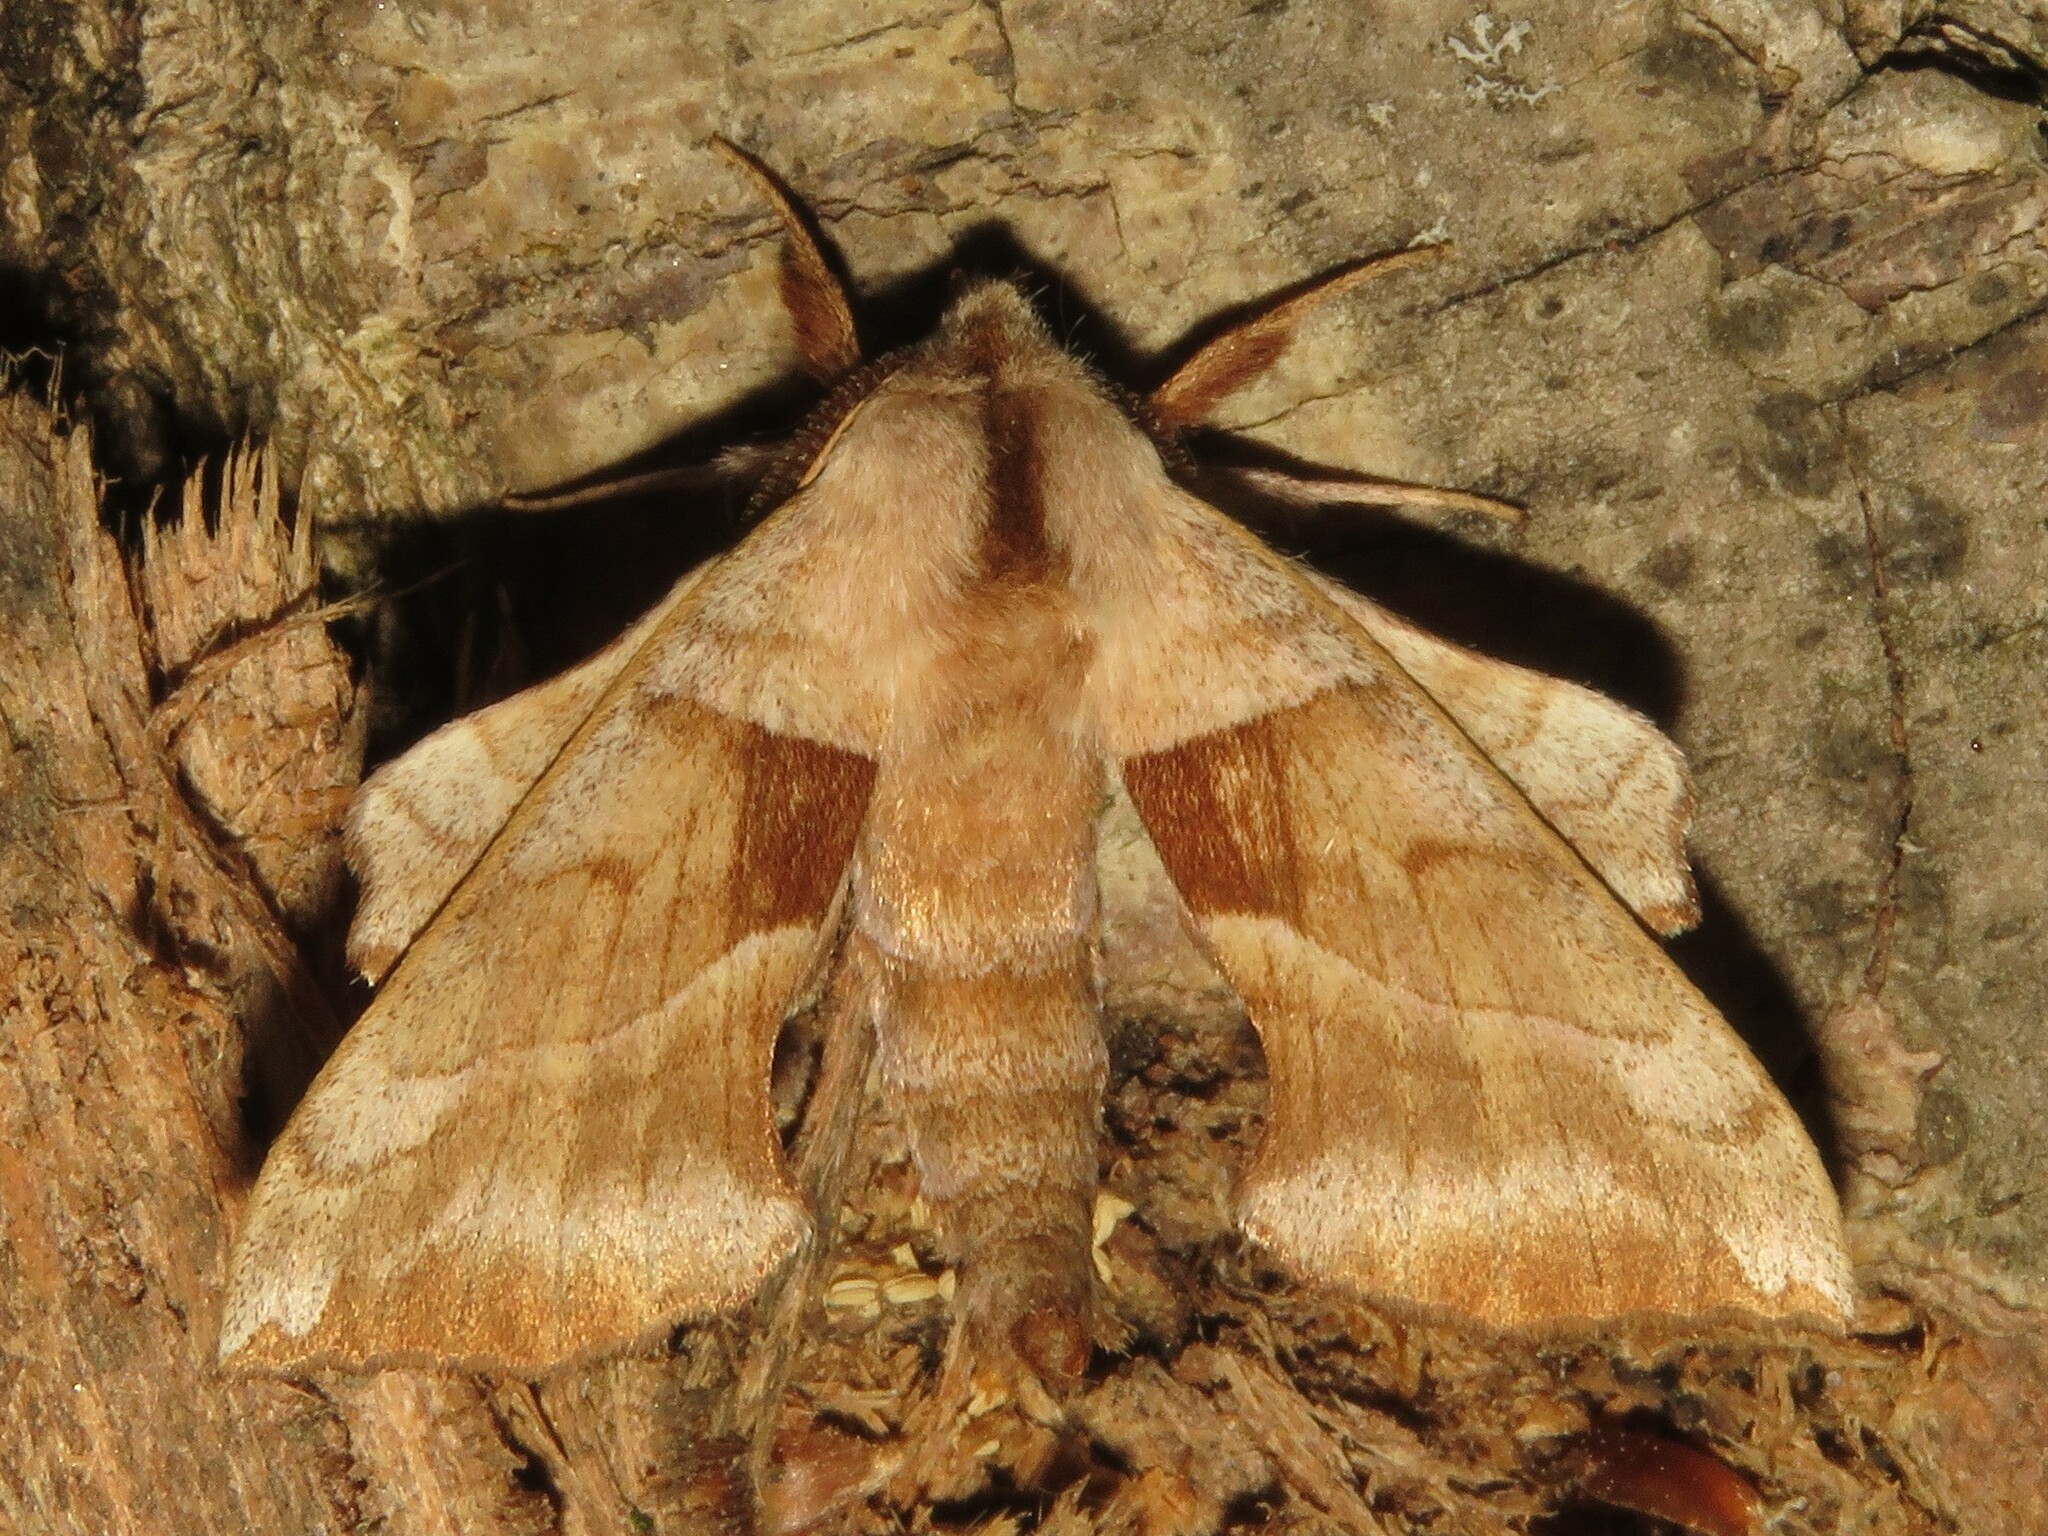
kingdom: Animalia
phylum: Arthropoda
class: Insecta
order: Lepidoptera
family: Sphingidae
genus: Amorpha
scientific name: Amorpha juglandis
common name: Walnut sphinx
